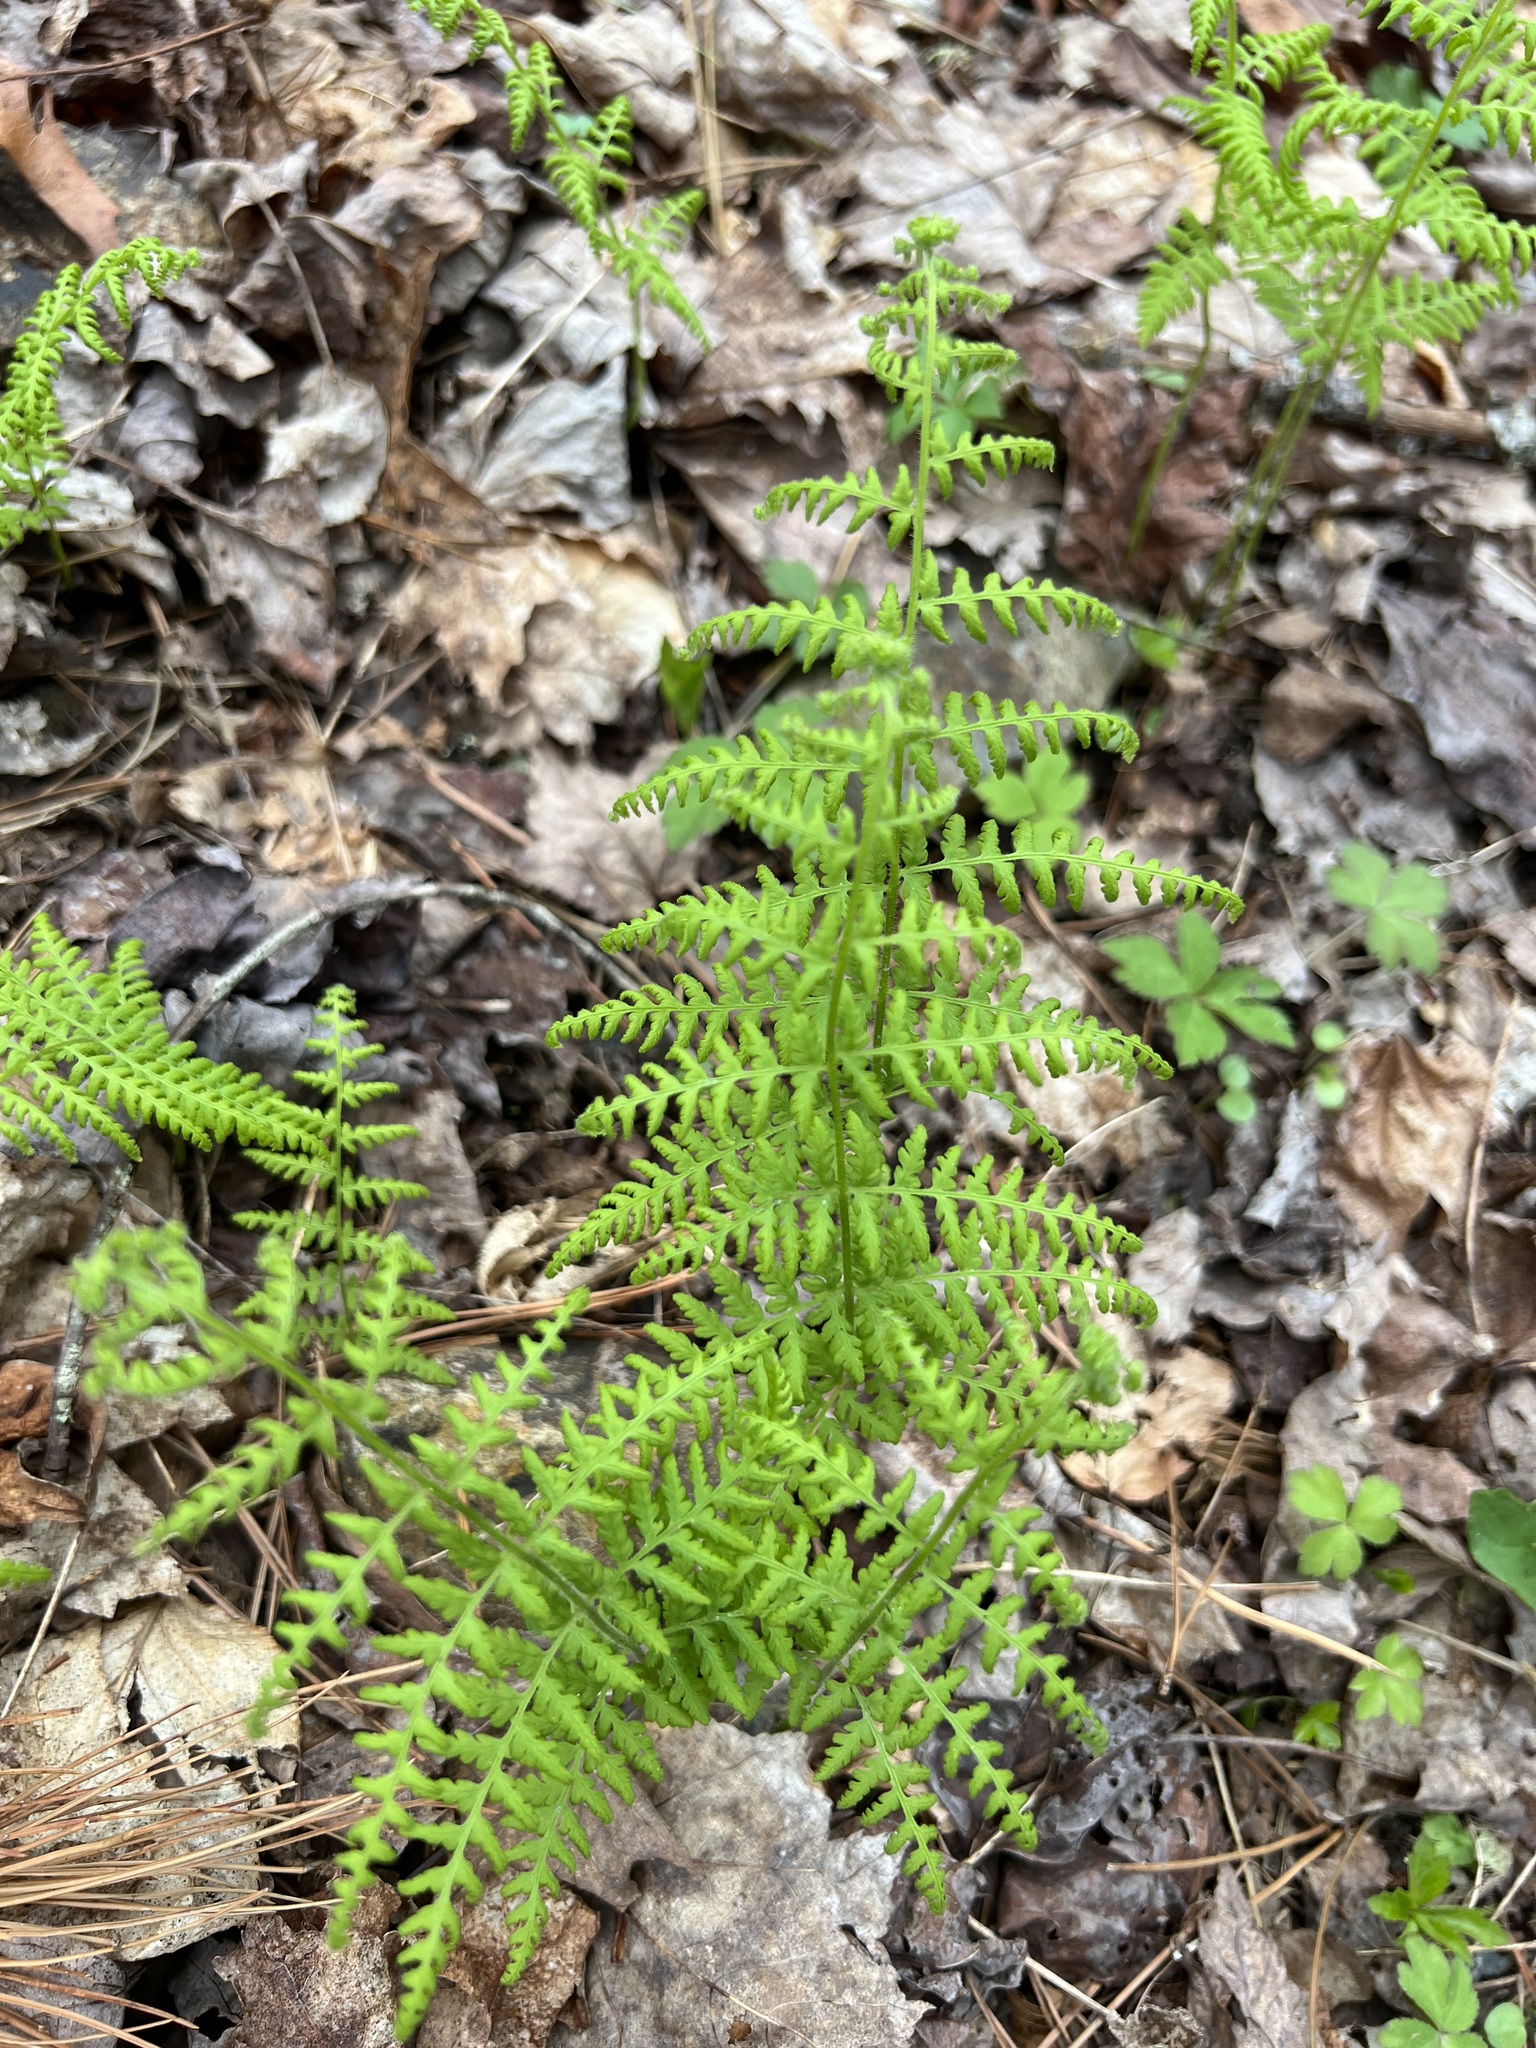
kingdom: Plantae
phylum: Tracheophyta
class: Polypodiopsida
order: Polypodiales
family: Dennstaedtiaceae
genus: Sitobolium
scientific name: Sitobolium punctilobum
